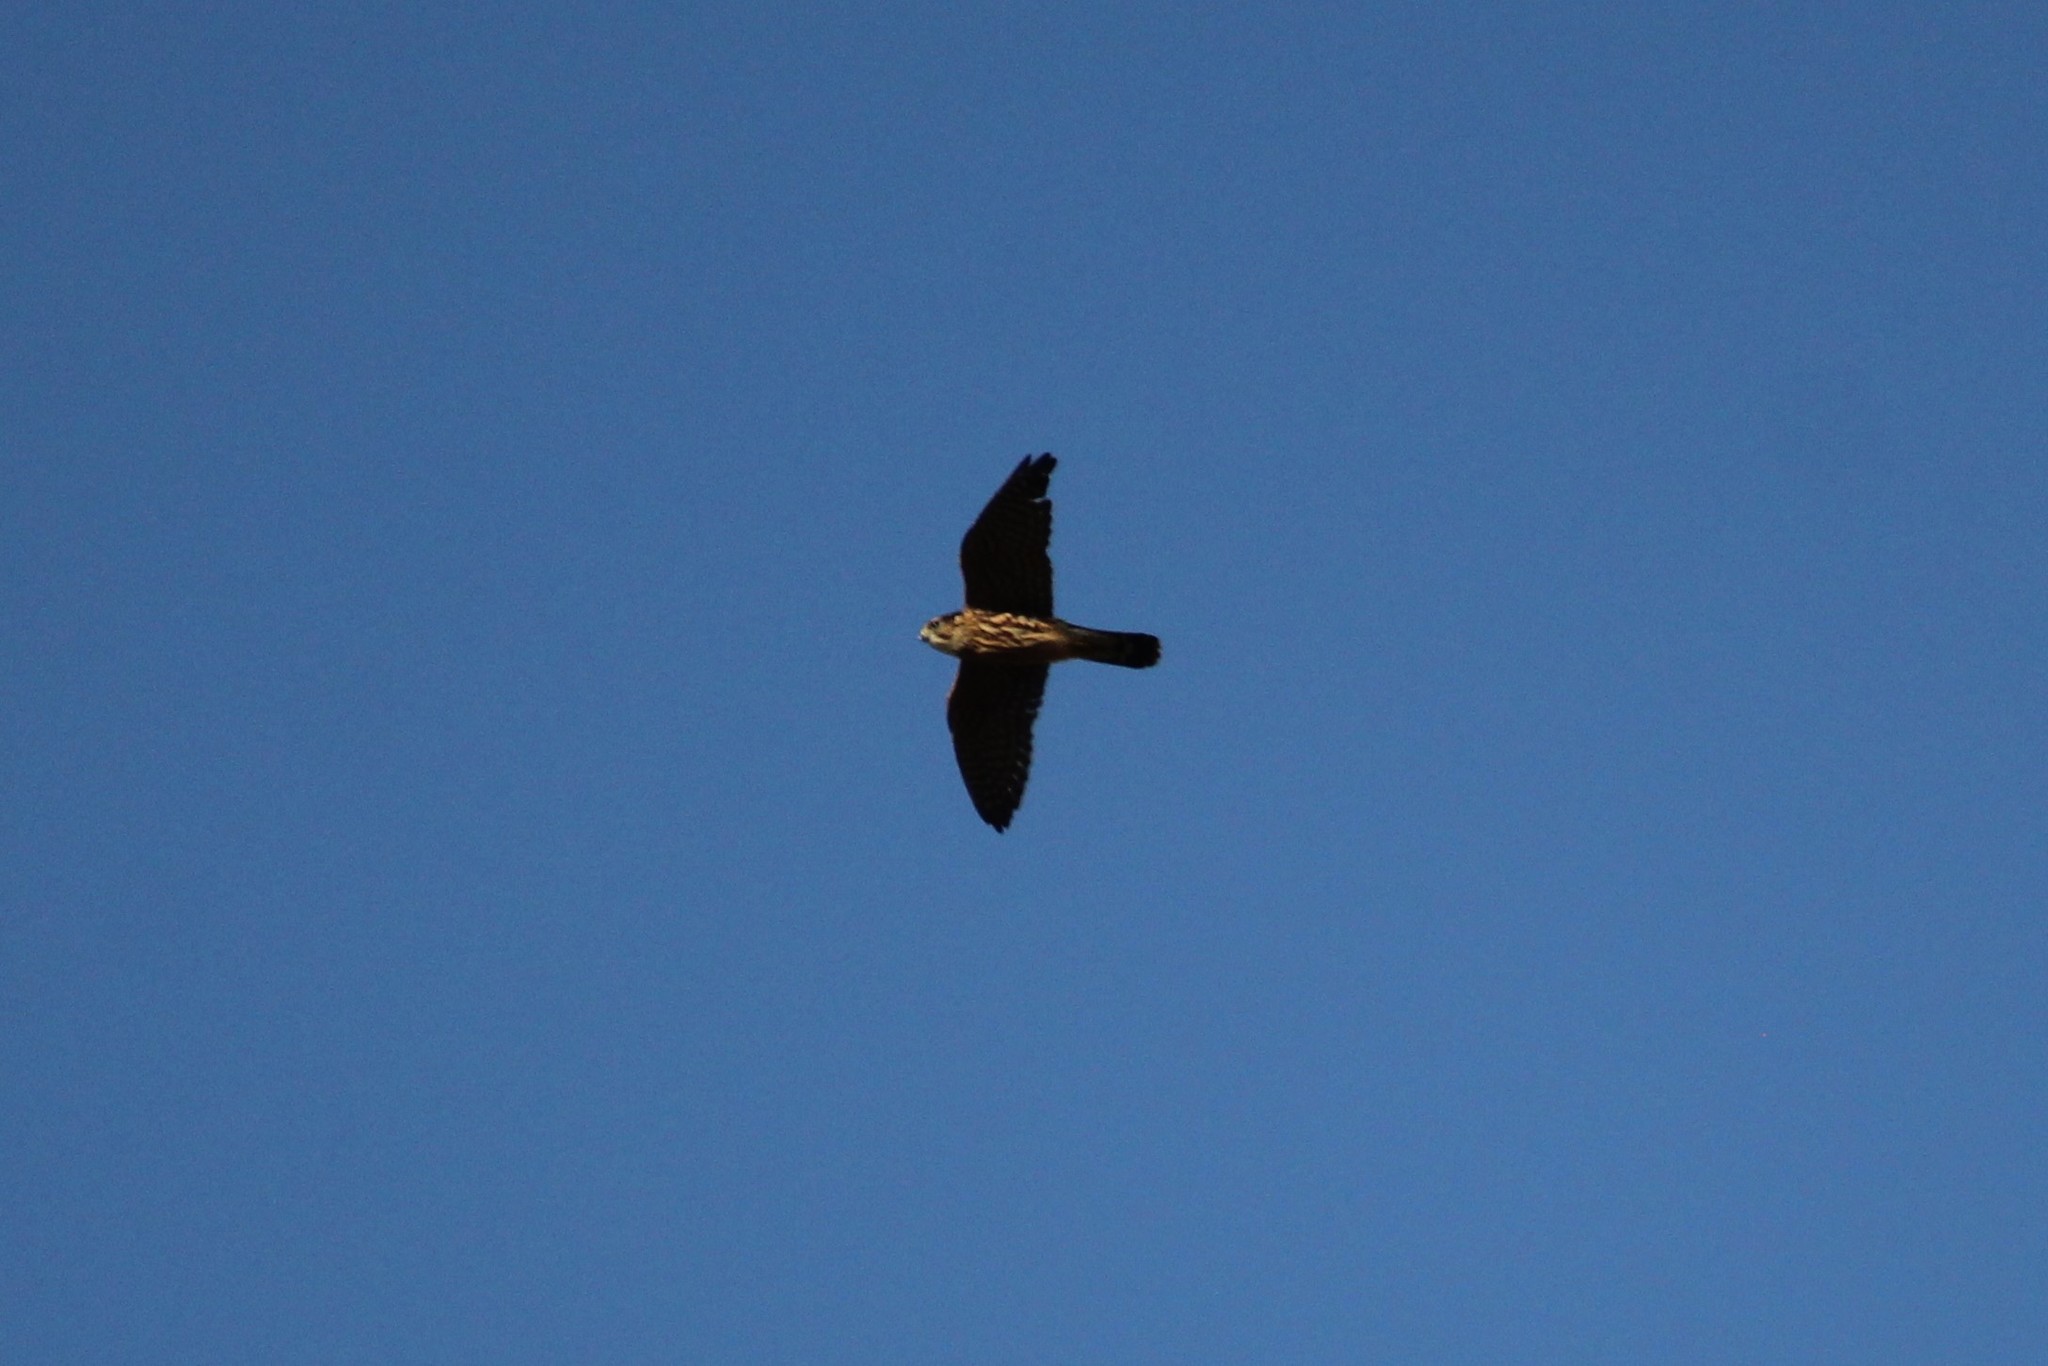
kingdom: Animalia
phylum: Chordata
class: Aves
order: Falconiformes
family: Falconidae
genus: Falco
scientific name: Falco columbarius
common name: Merlin
